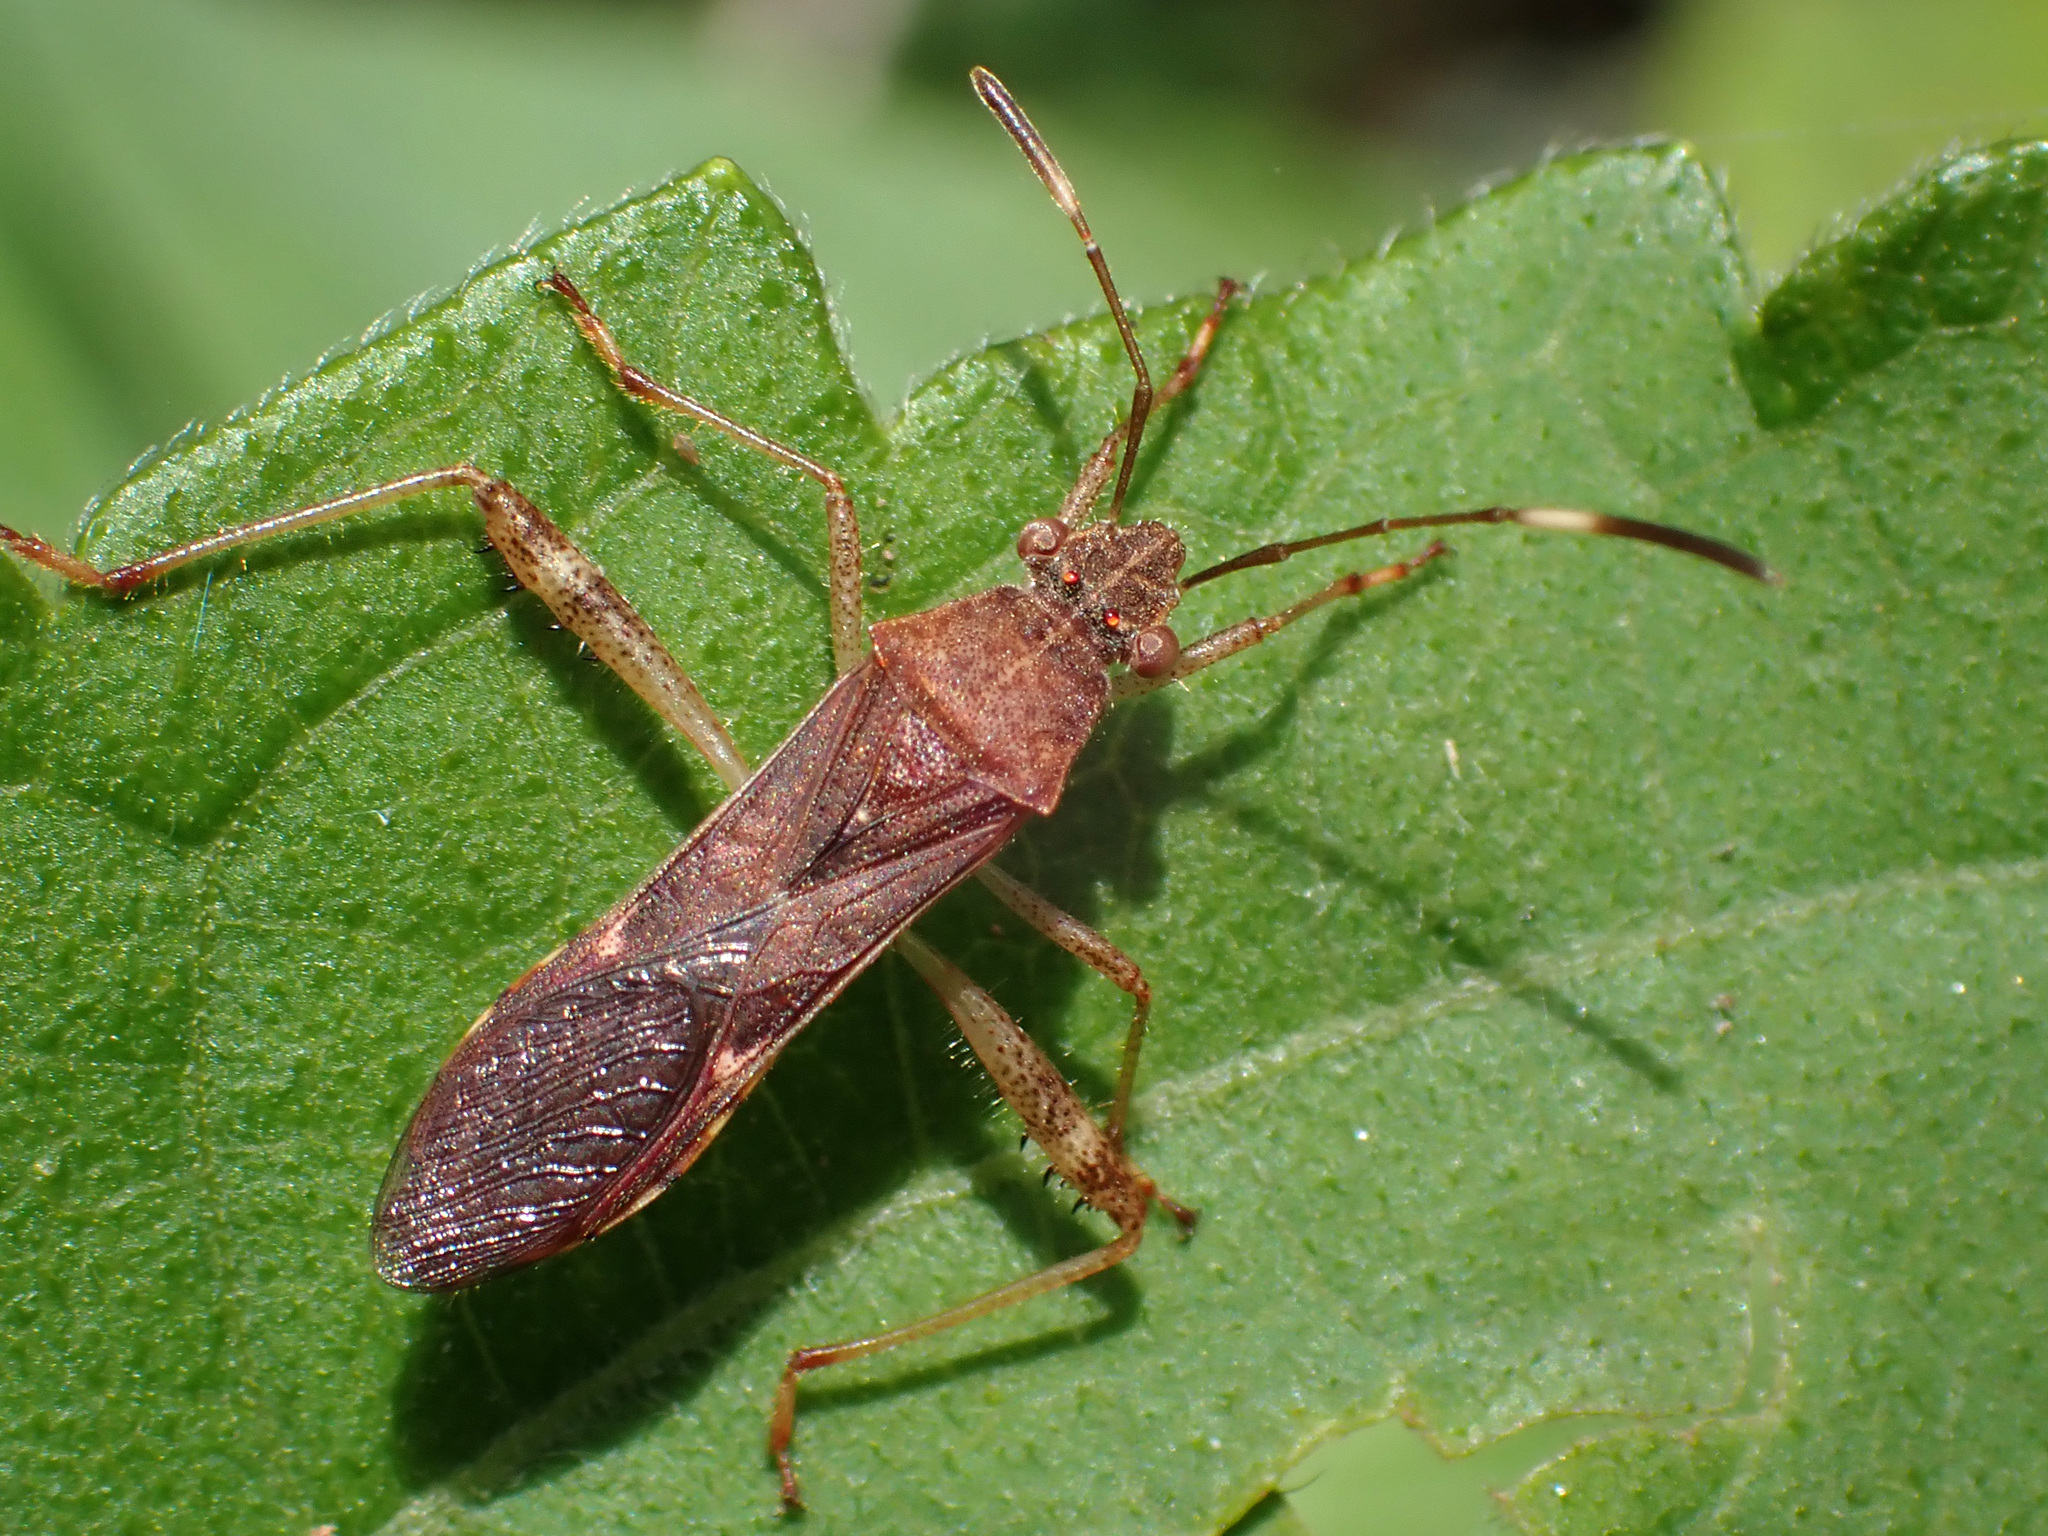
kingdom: Animalia
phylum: Arthropoda
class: Insecta
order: Hemiptera
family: Alydidae
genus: Burtinus
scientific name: Burtinus notatipennis
